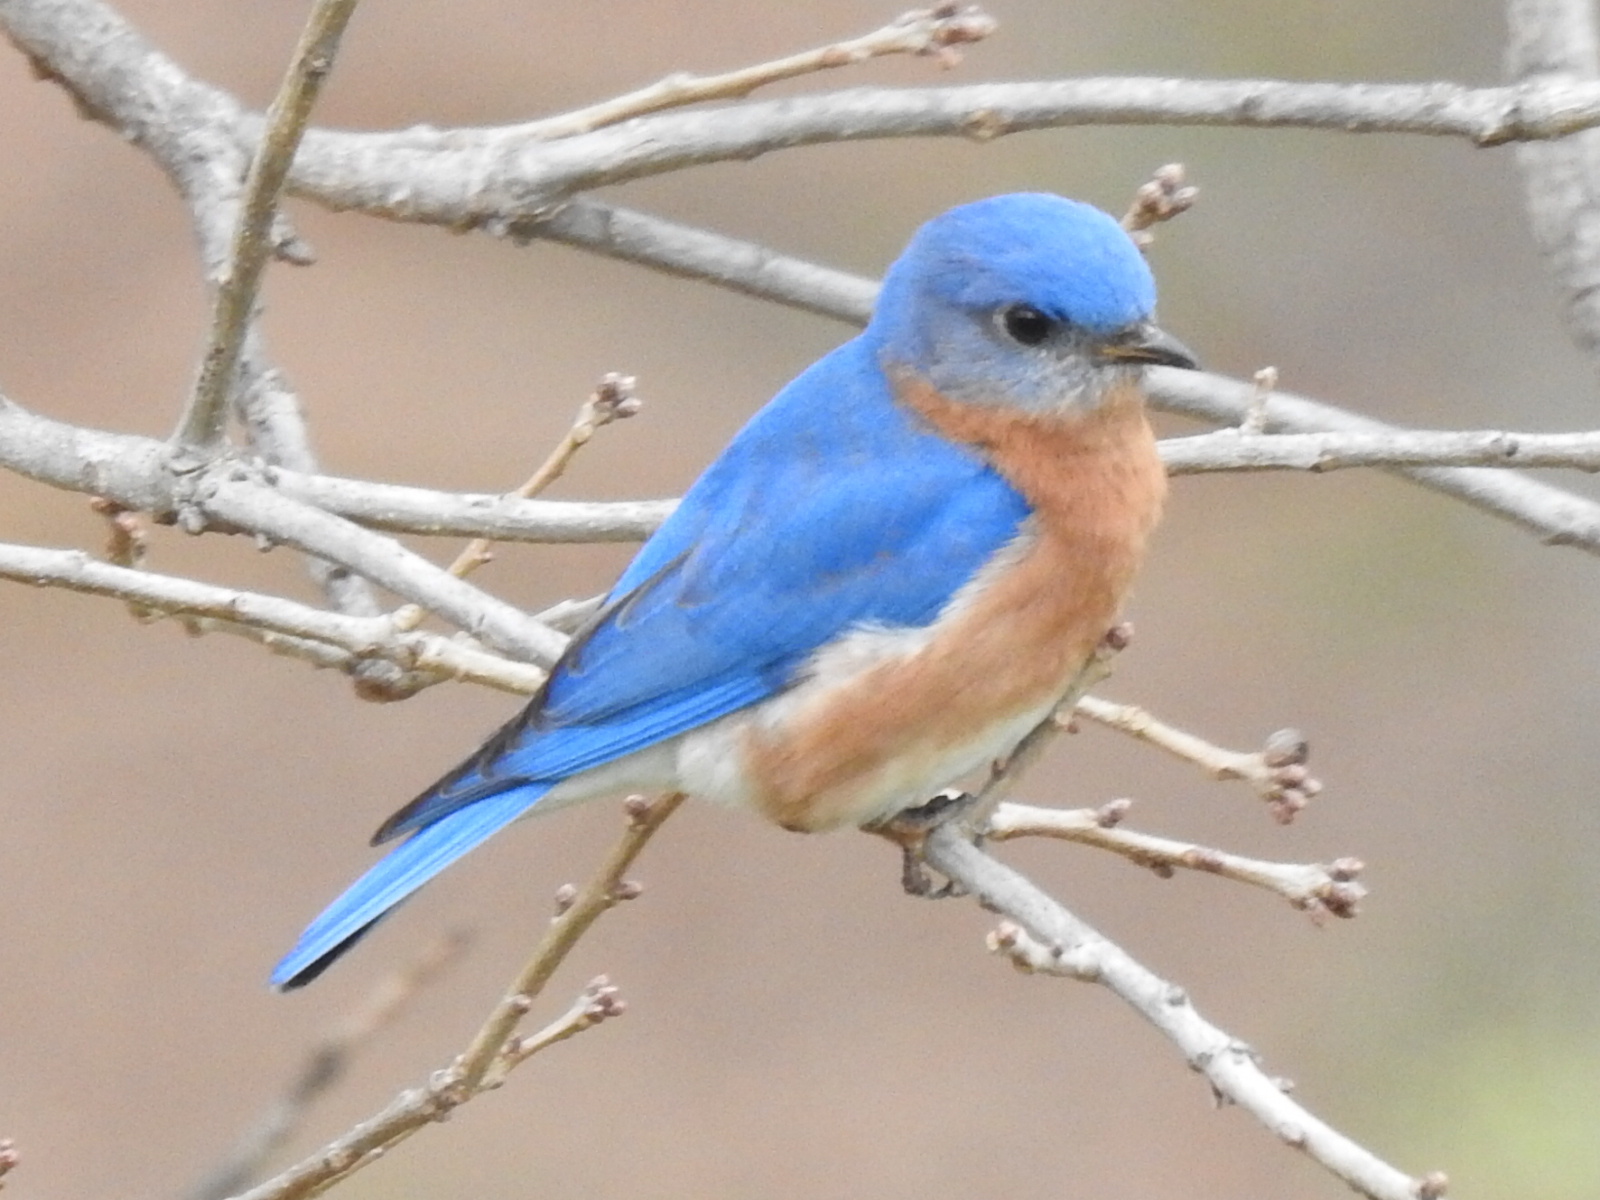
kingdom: Animalia
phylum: Chordata
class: Aves
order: Passeriformes
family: Turdidae
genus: Sialia
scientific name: Sialia sialis
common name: Eastern bluebird
